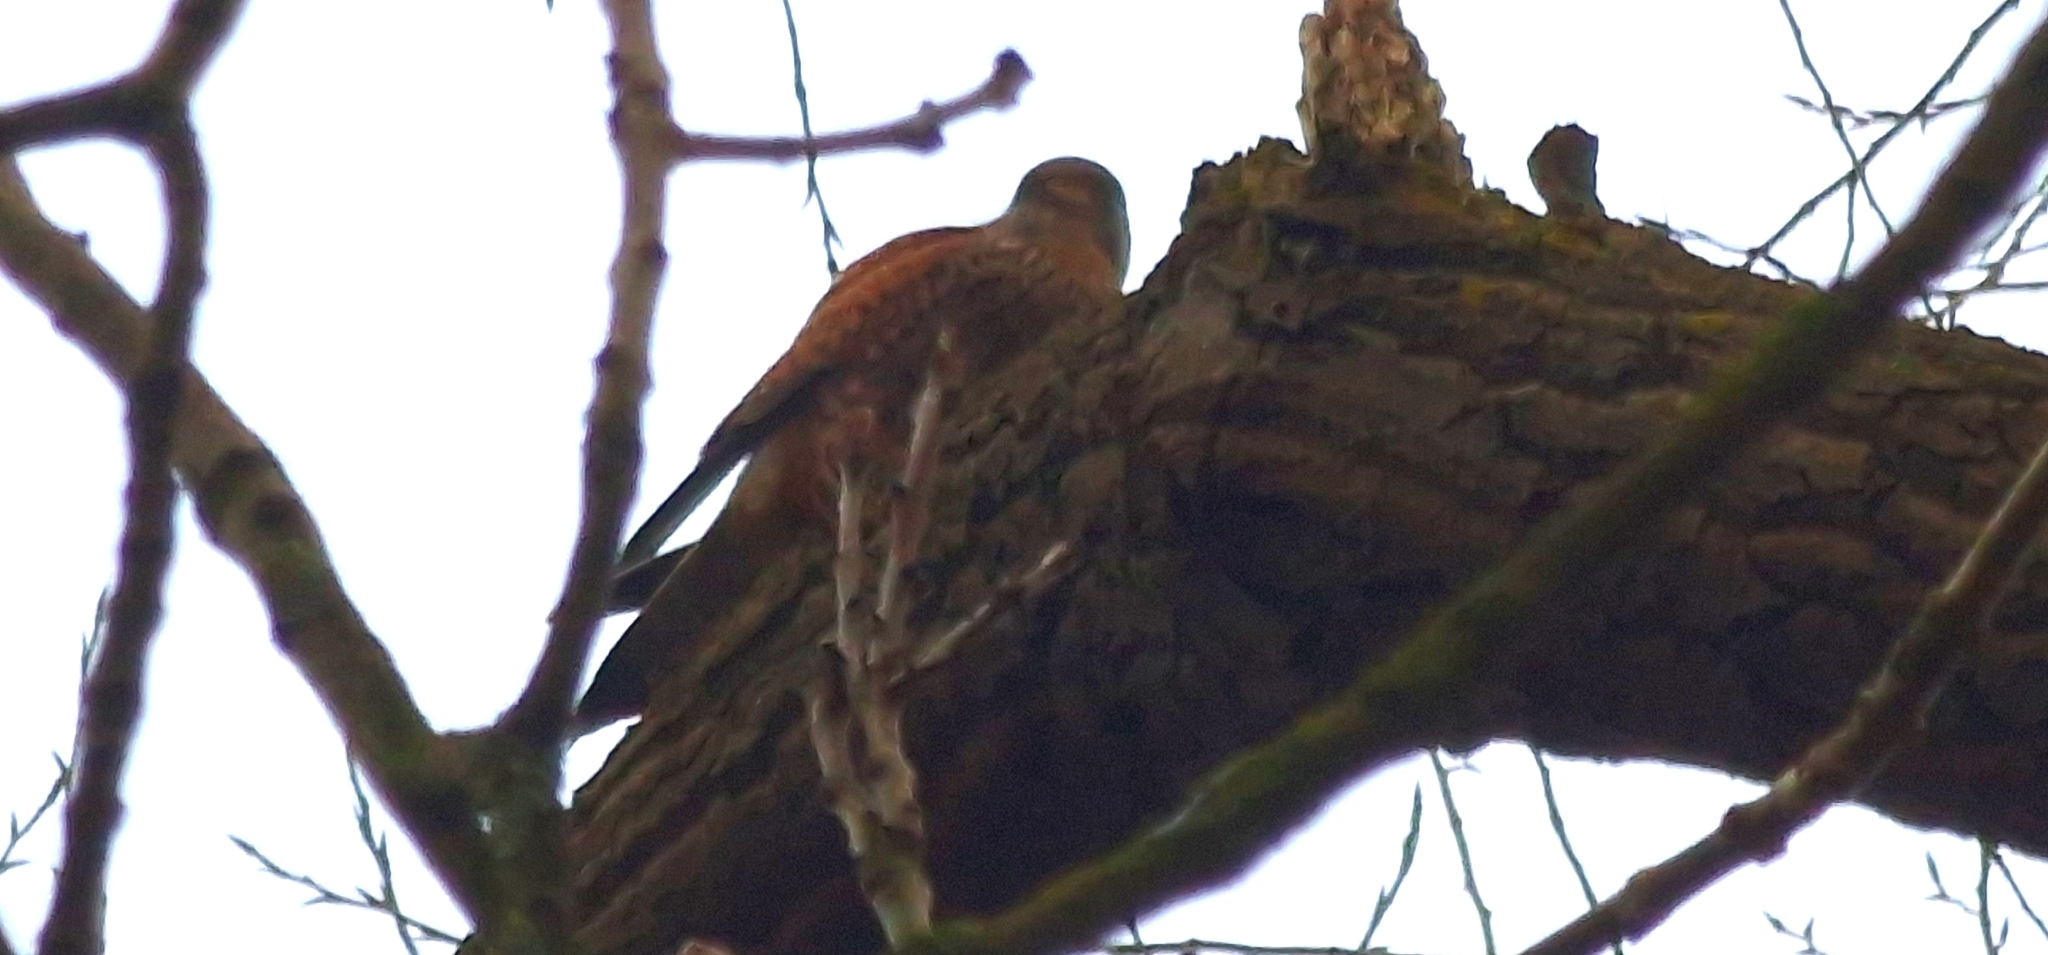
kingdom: Animalia
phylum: Chordata
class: Aves
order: Falconiformes
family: Falconidae
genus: Falco
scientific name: Falco tinnunculus
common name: Common kestrel
